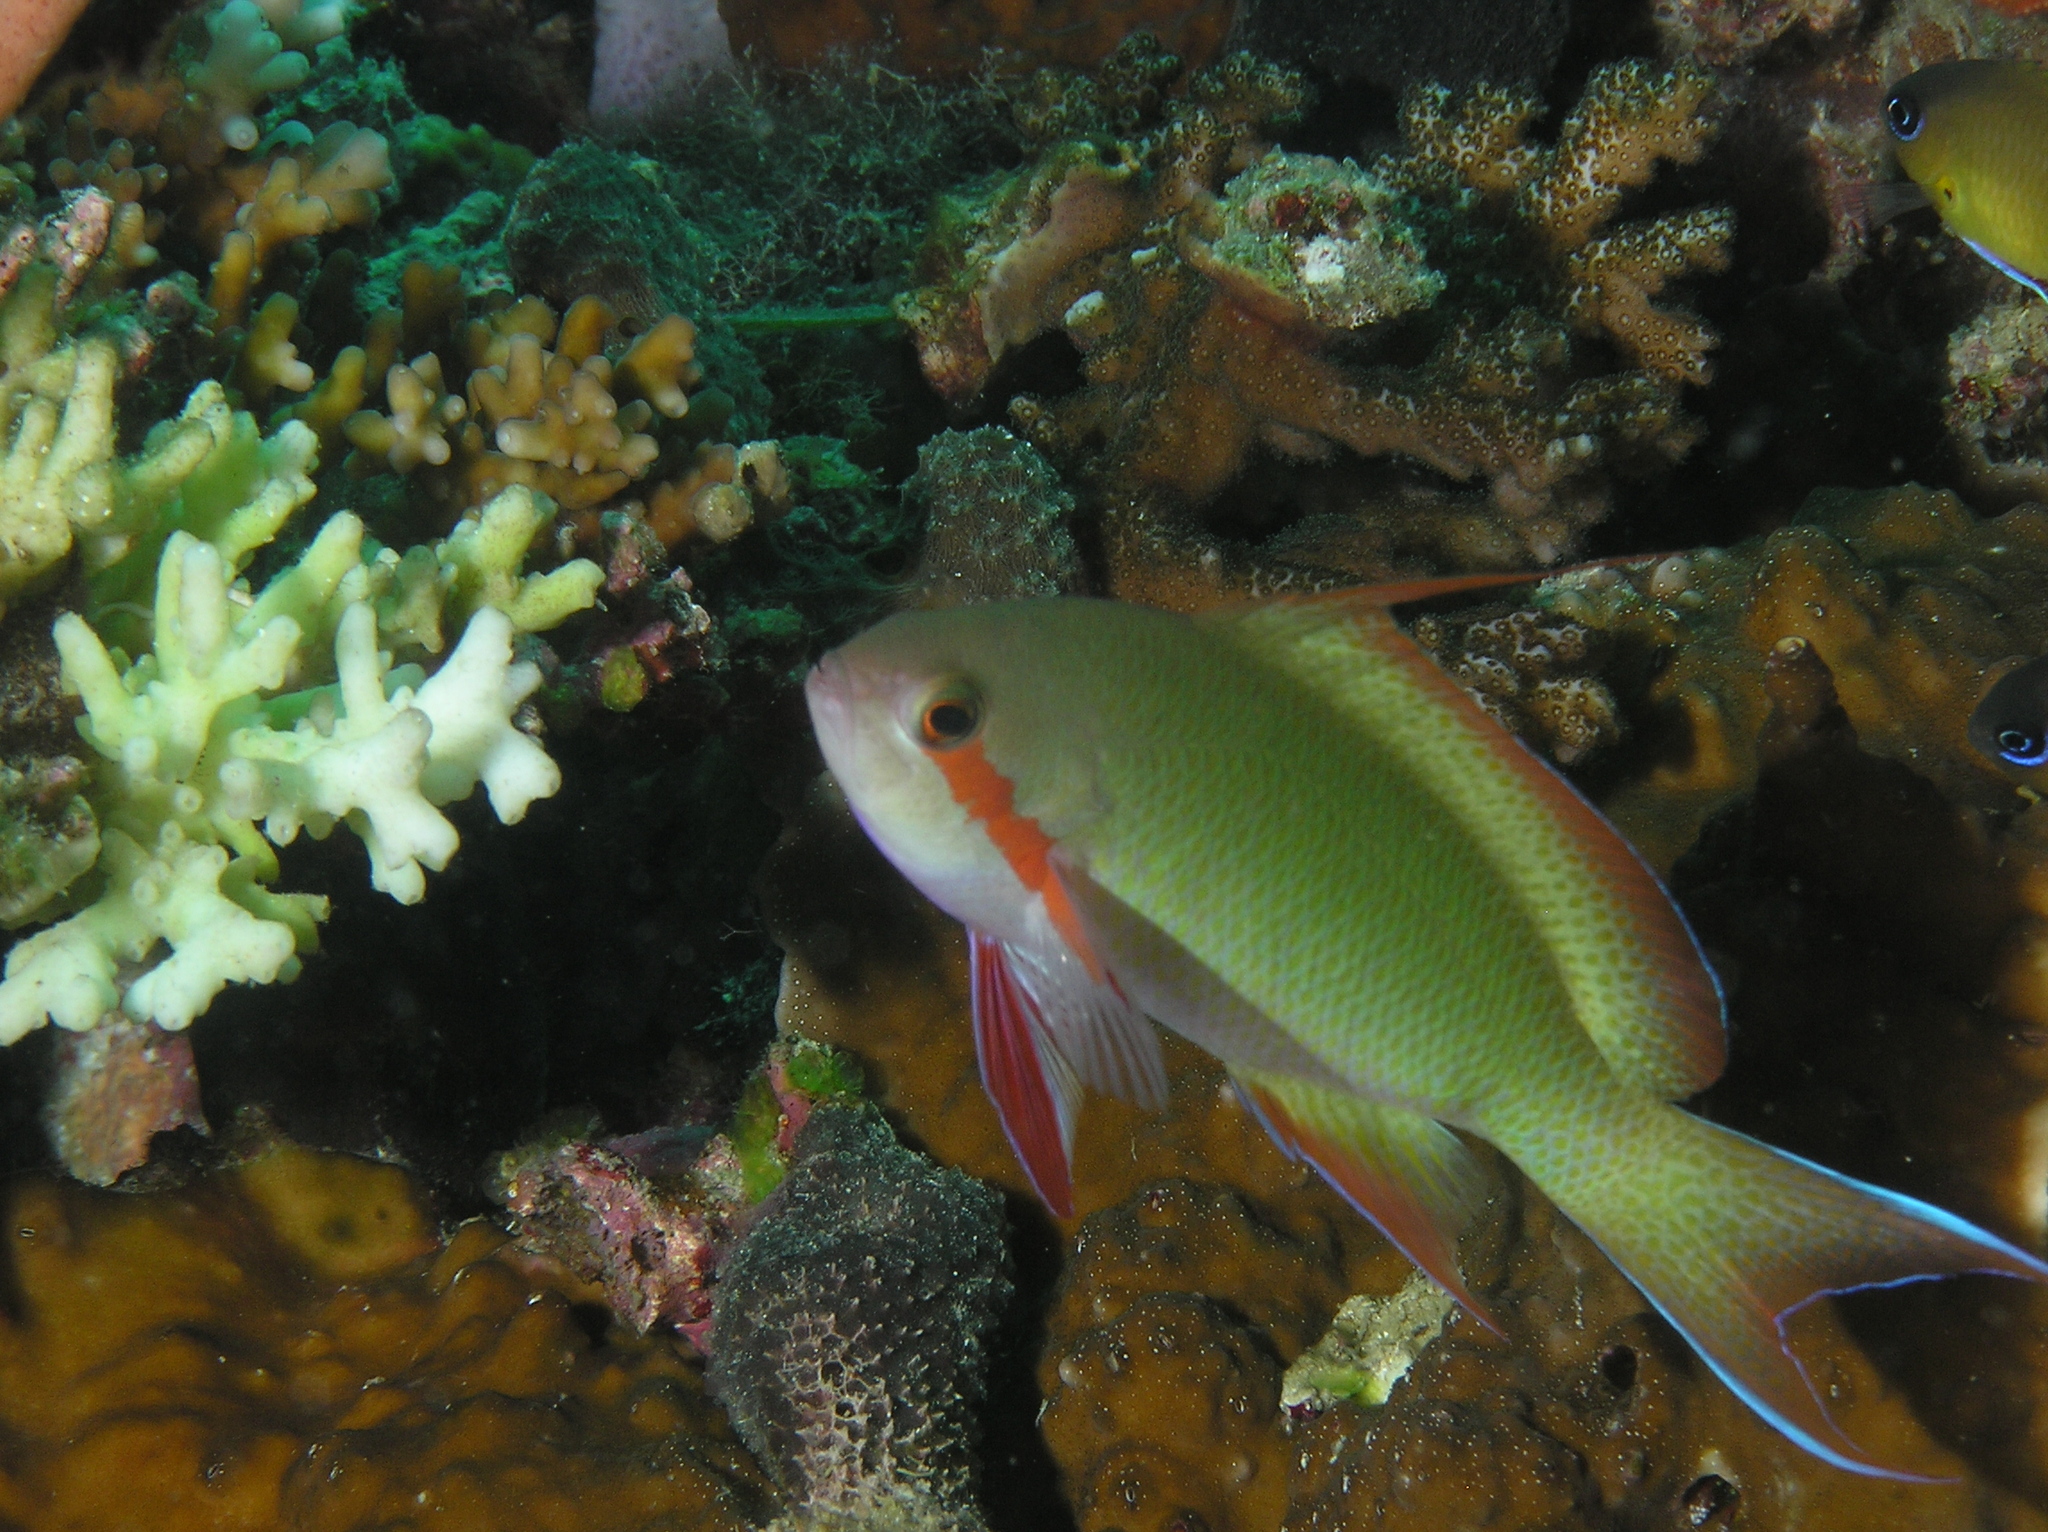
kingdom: Animalia
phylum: Chordata
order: Perciformes
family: Serranidae
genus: Pseudanthias
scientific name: Pseudanthias huchtii
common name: Pacific basslet
